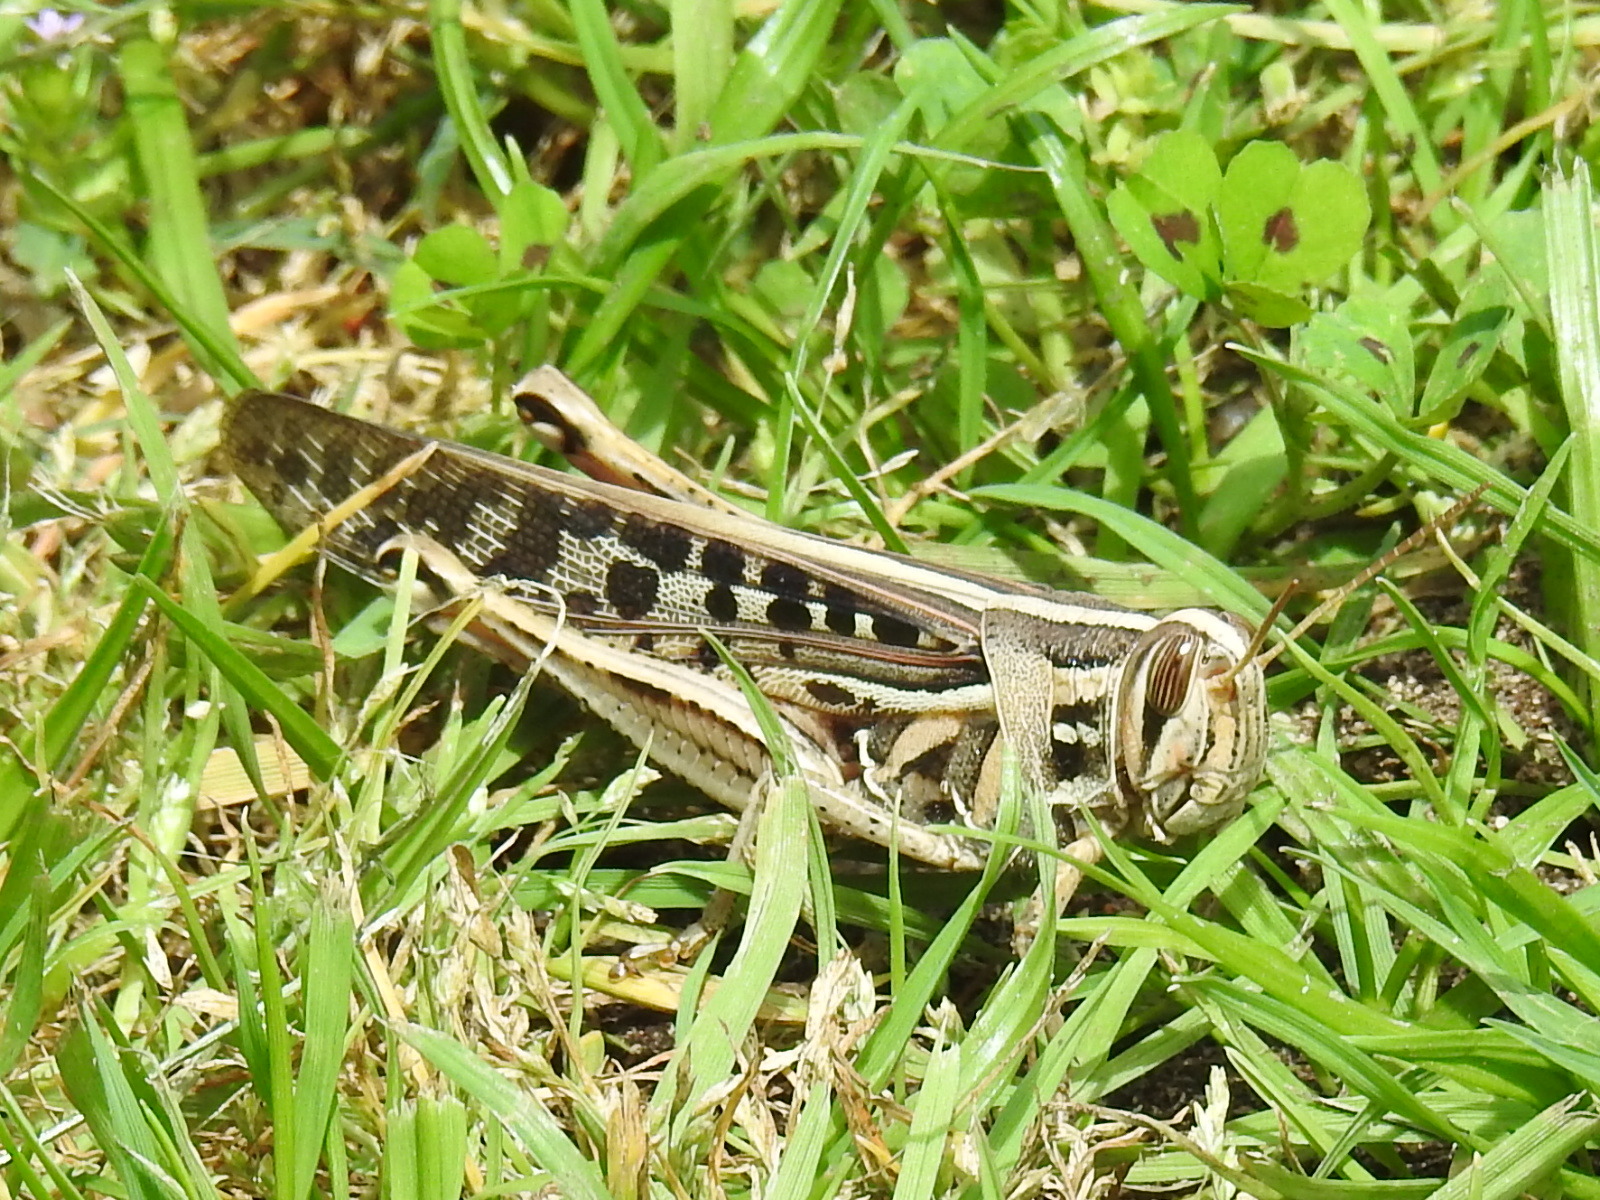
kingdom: Animalia
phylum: Arthropoda
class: Insecta
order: Orthoptera
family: Acrididae
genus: Schistocerca
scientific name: Schistocerca americana
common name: American bird locust
